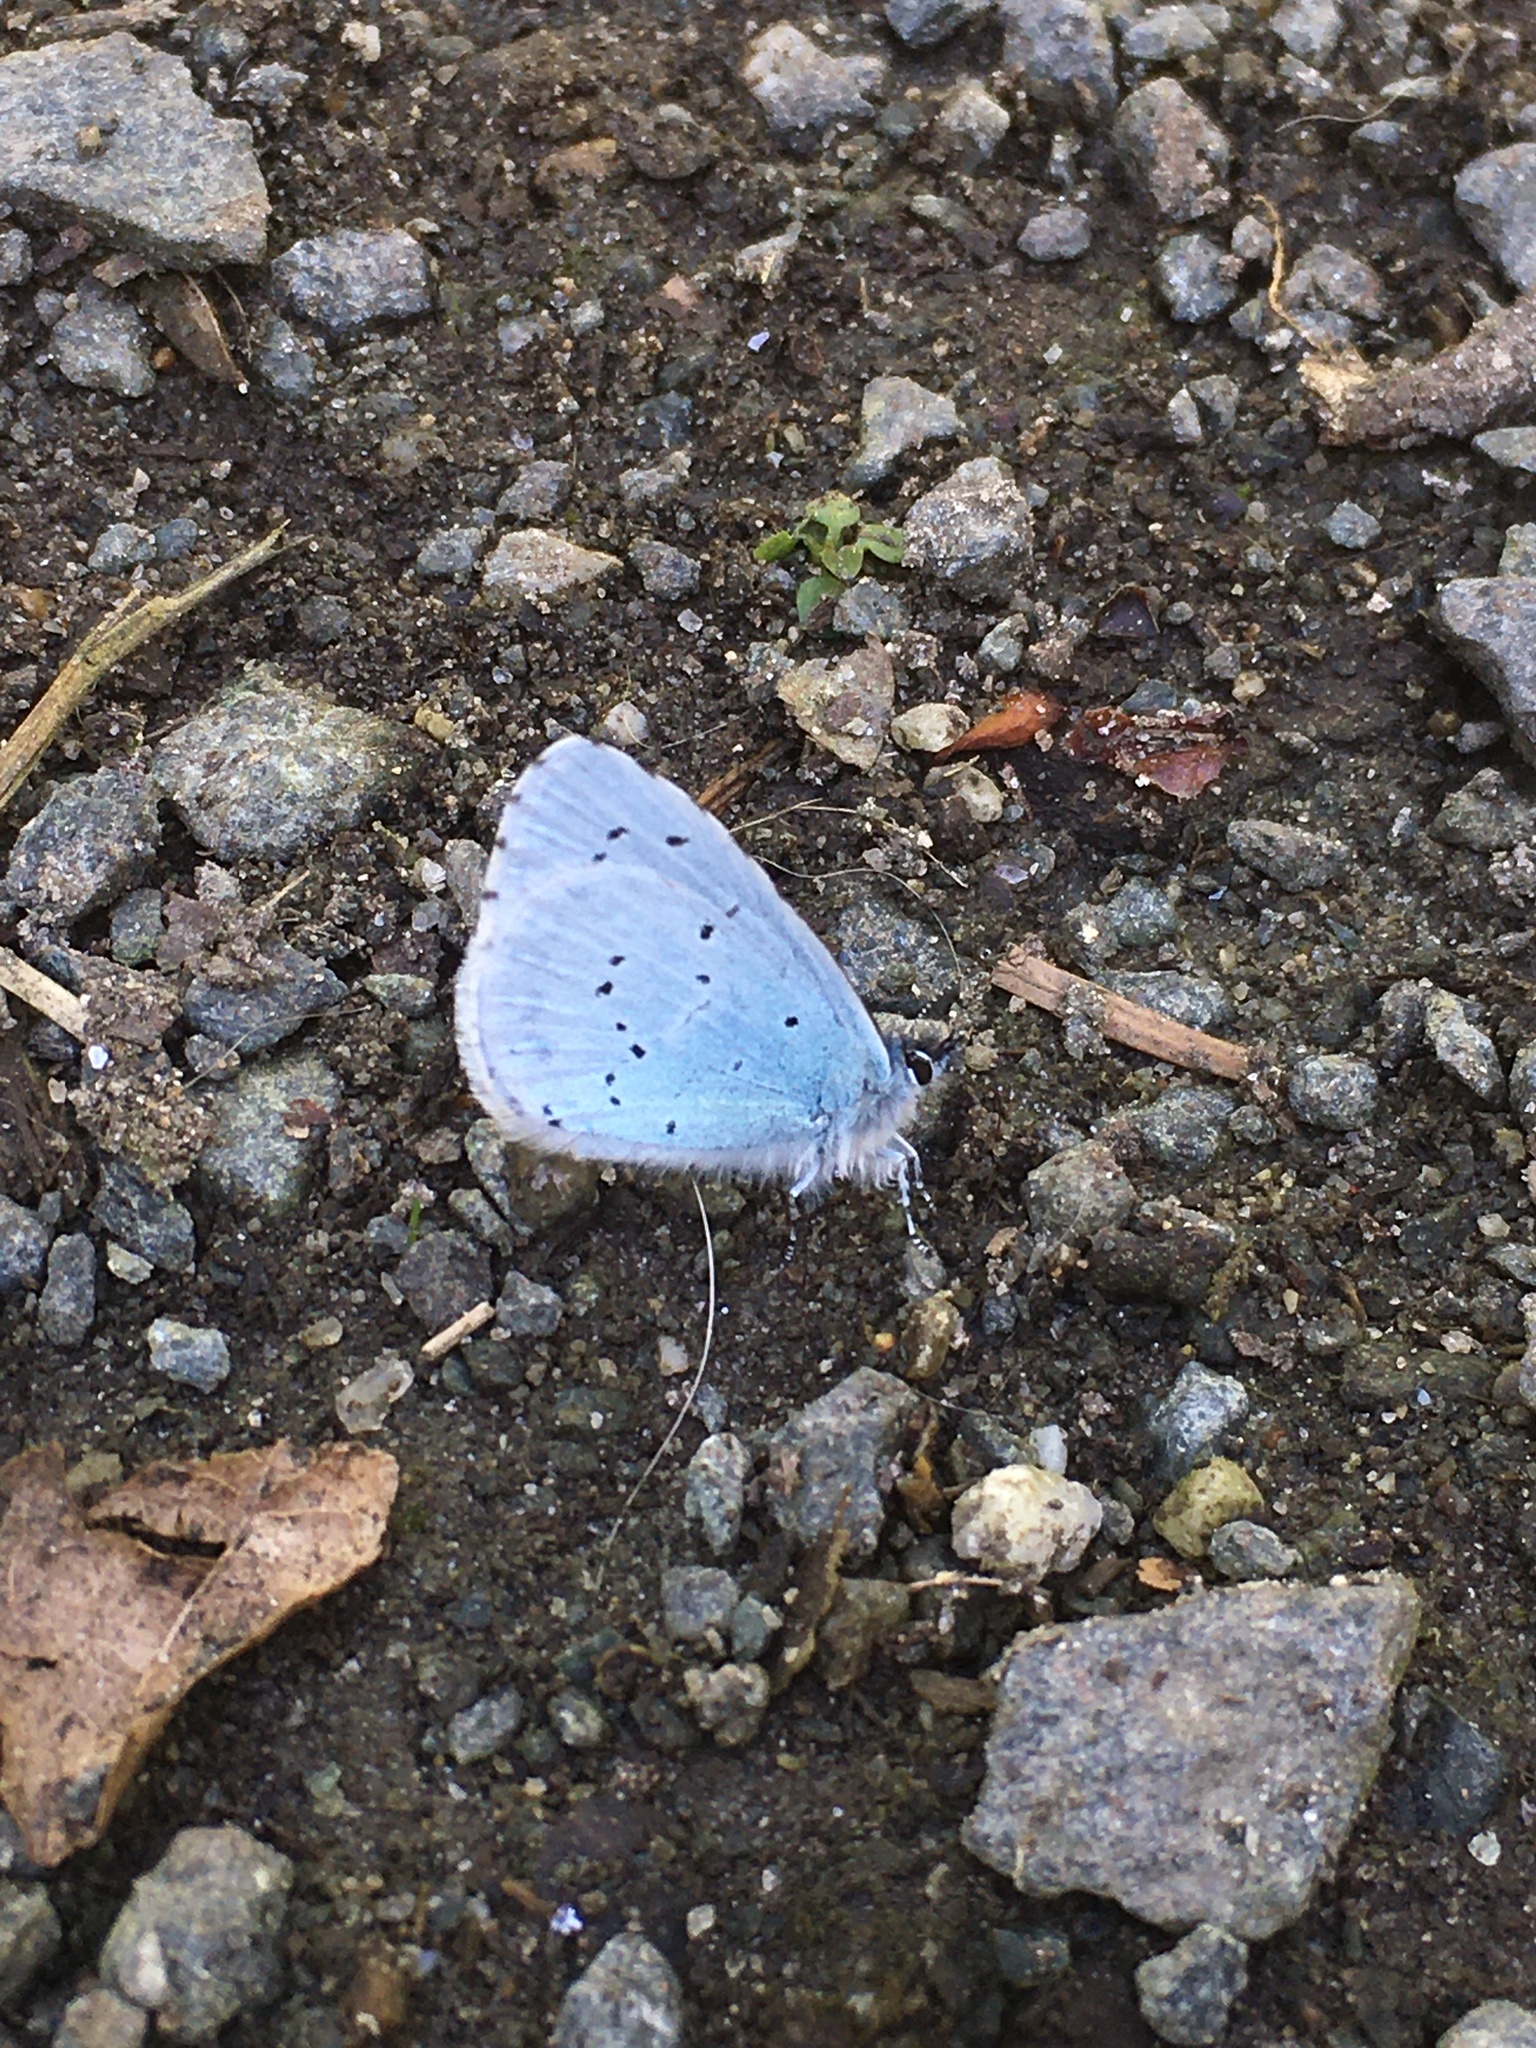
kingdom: Animalia
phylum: Arthropoda
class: Insecta
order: Lepidoptera
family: Lycaenidae
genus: Celastrina
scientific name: Celastrina argiolus
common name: Holly blue
